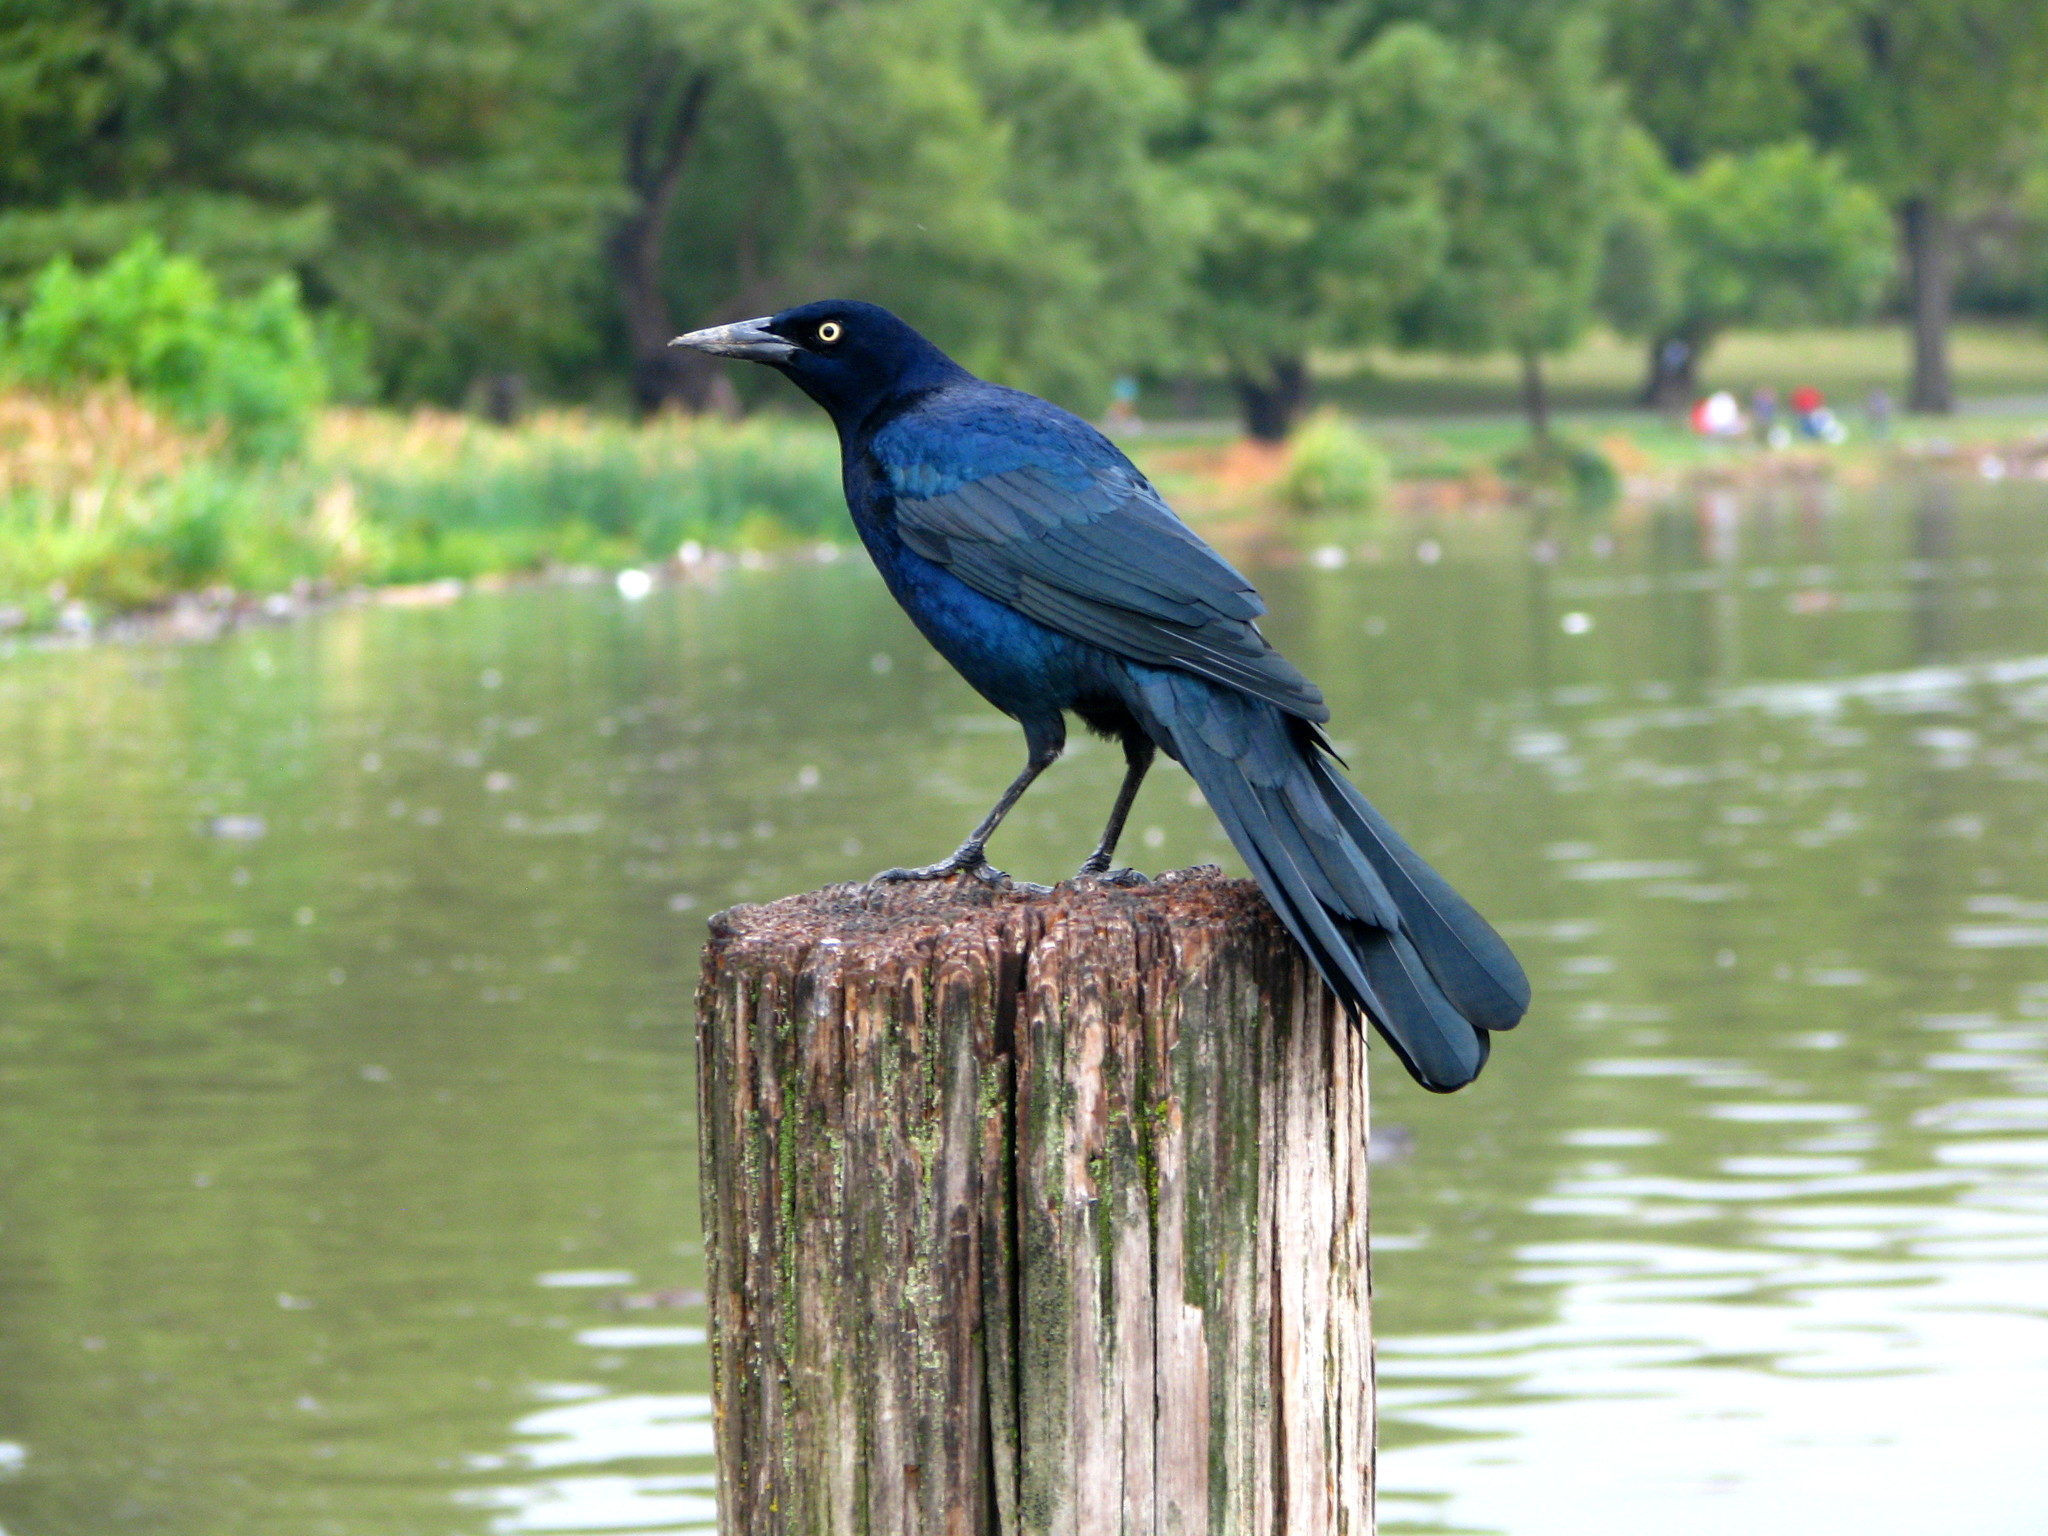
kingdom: Animalia
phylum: Chordata
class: Aves
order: Passeriformes
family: Icteridae
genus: Quiscalus
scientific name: Quiscalus mexicanus
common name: Great-tailed grackle
